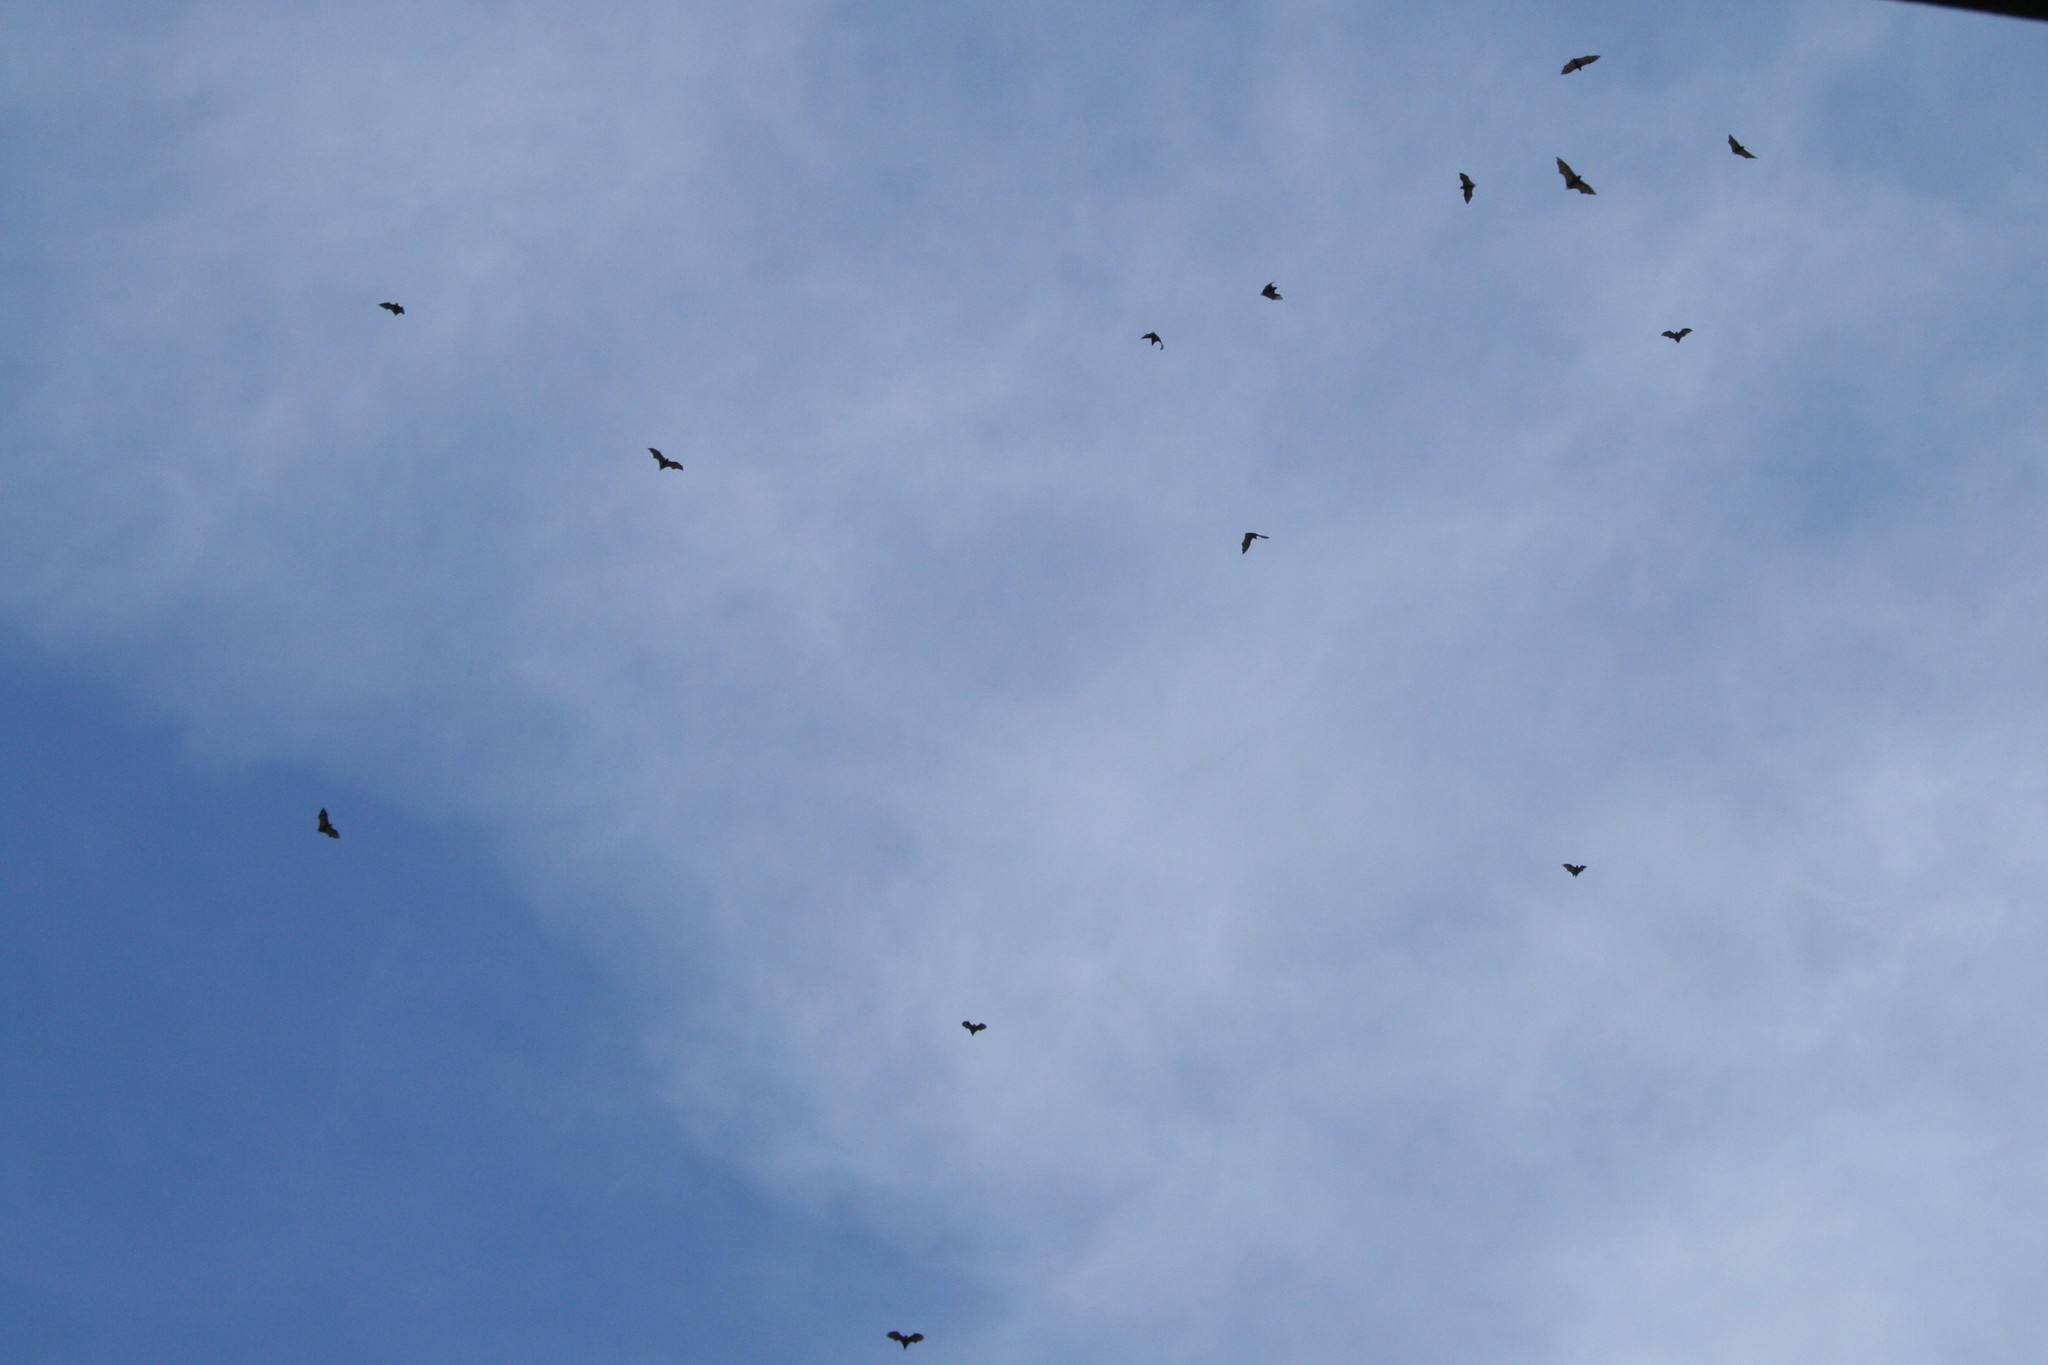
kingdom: Animalia
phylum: Chordata
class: Mammalia
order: Chiroptera
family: Pteropodidae
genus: Pteropus
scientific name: Pteropus tonganus
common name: Pacific flying fox
